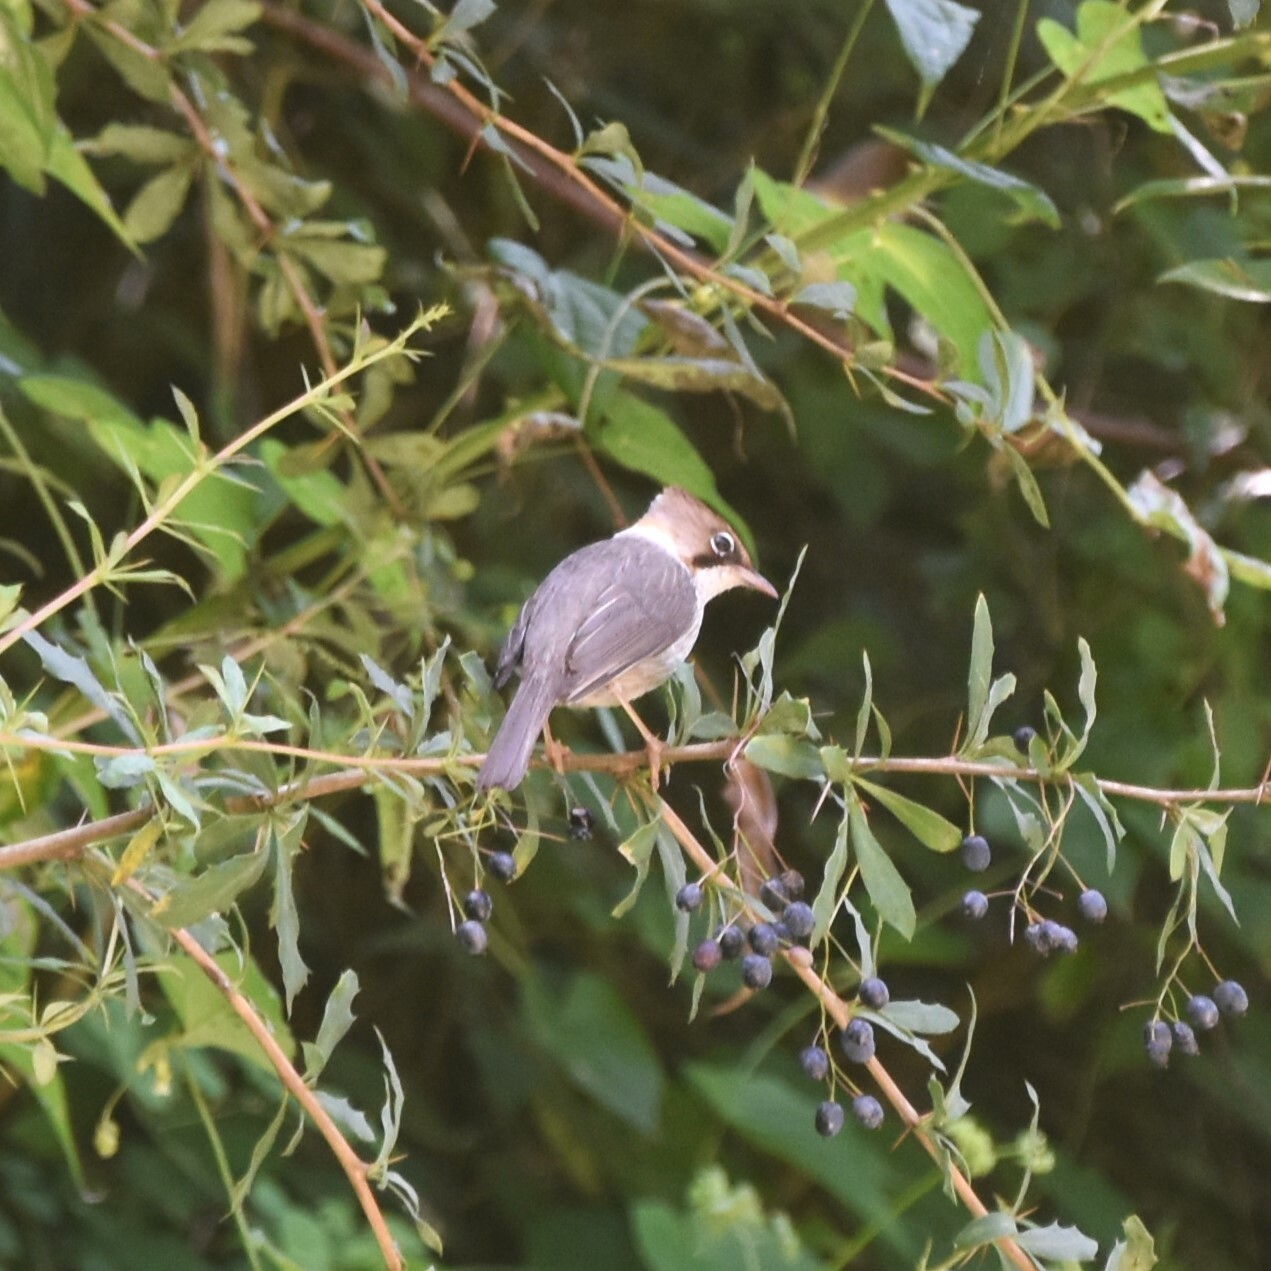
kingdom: Animalia
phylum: Chordata
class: Aves
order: Passeriformes
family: Zosteropidae
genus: Yuhina
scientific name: Yuhina flavicollis
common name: Whiskered yuhina
